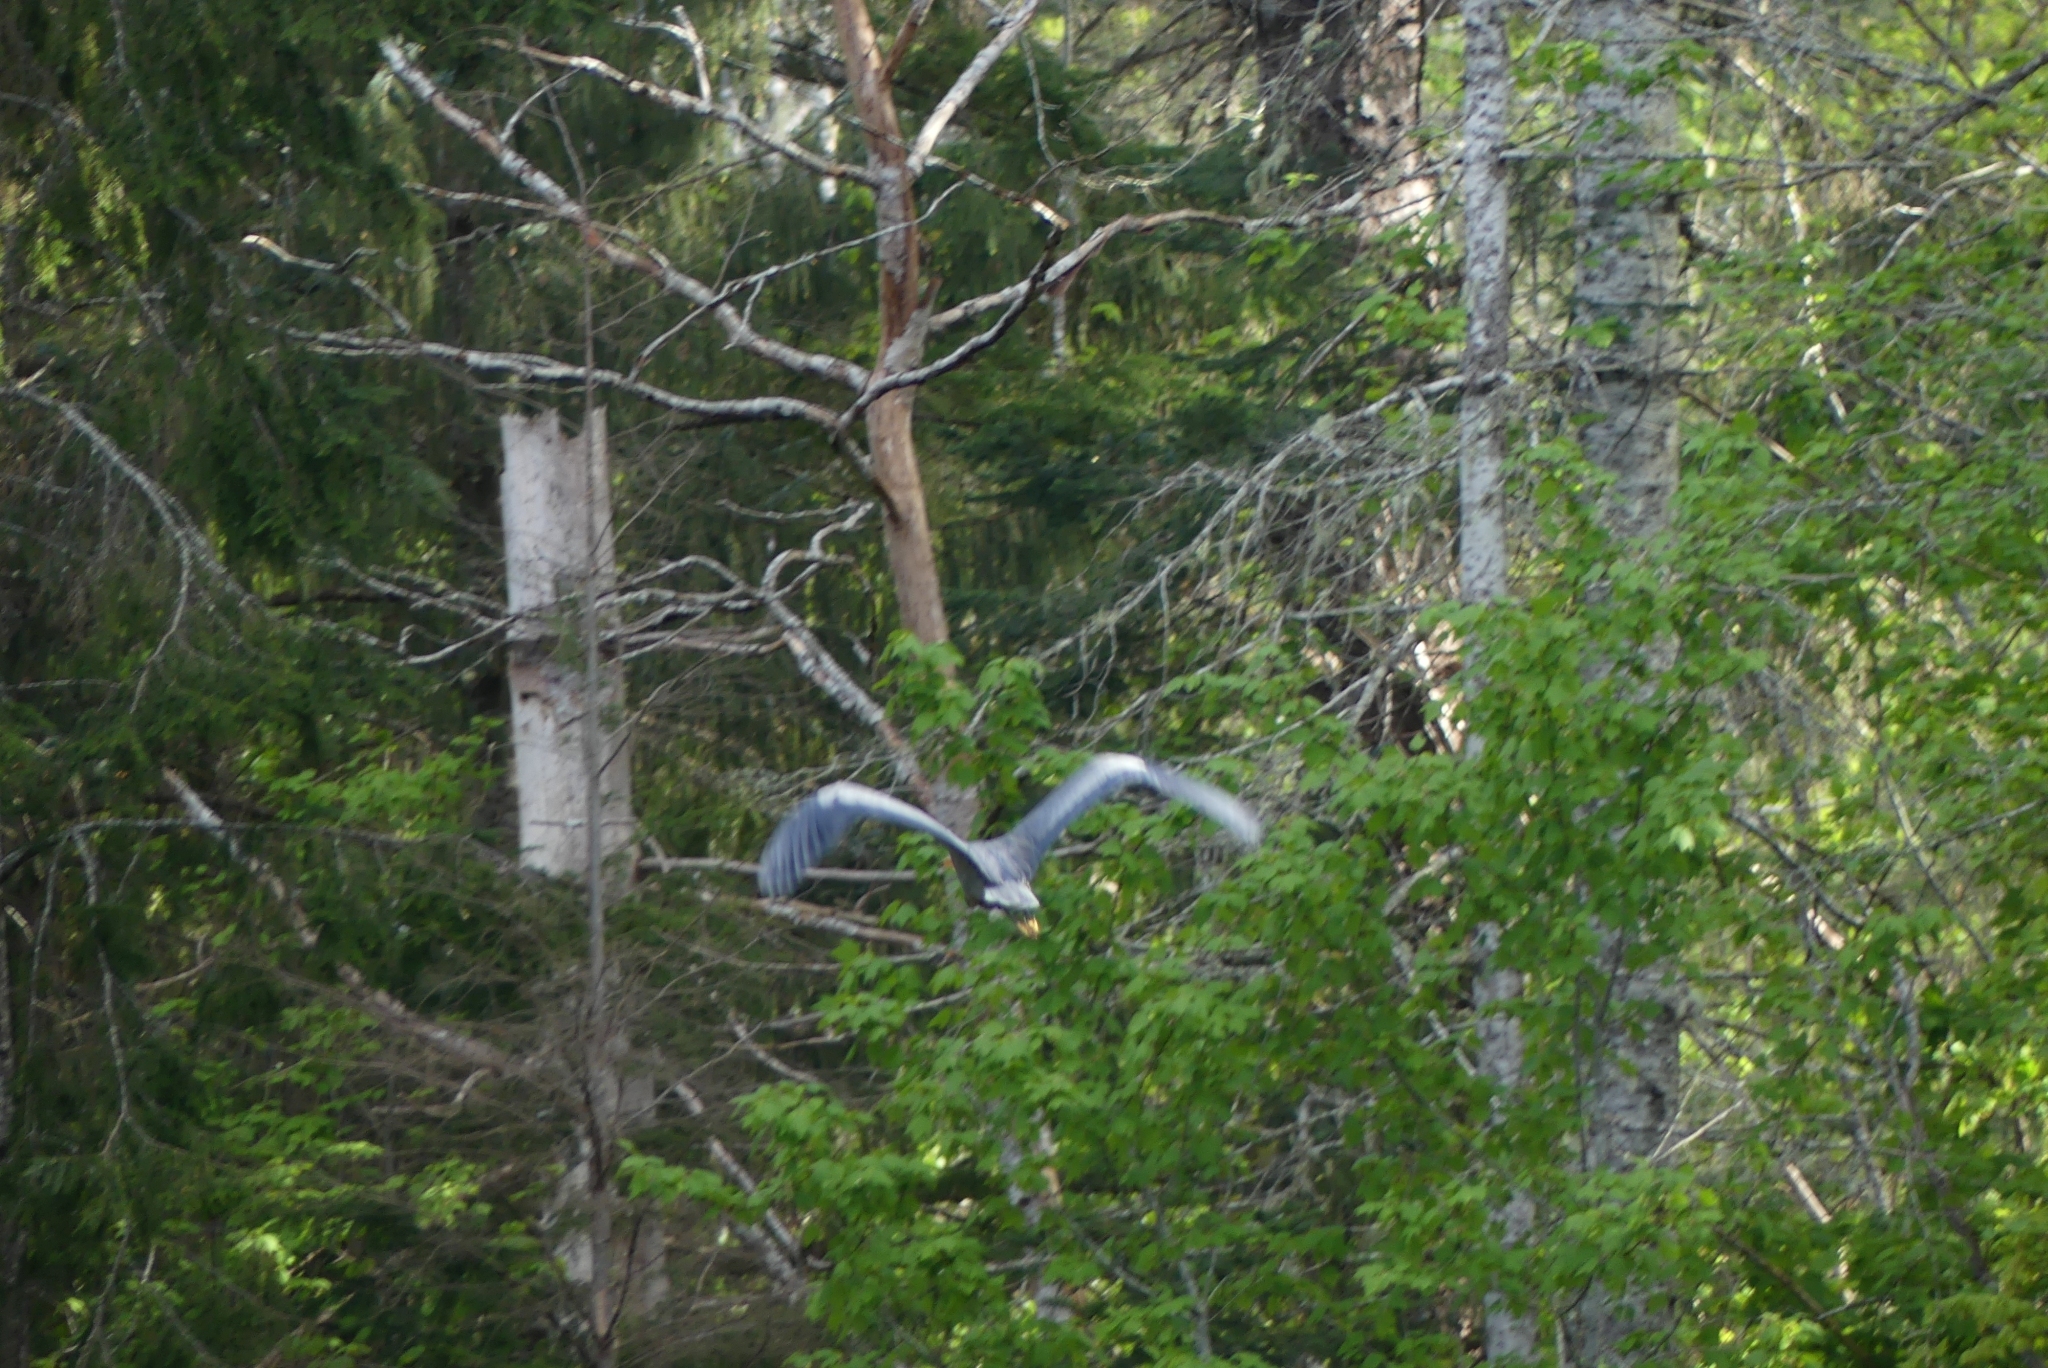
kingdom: Animalia
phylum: Chordata
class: Aves
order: Pelecaniformes
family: Ardeidae
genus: Ardea
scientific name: Ardea herodias
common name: Great blue heron
